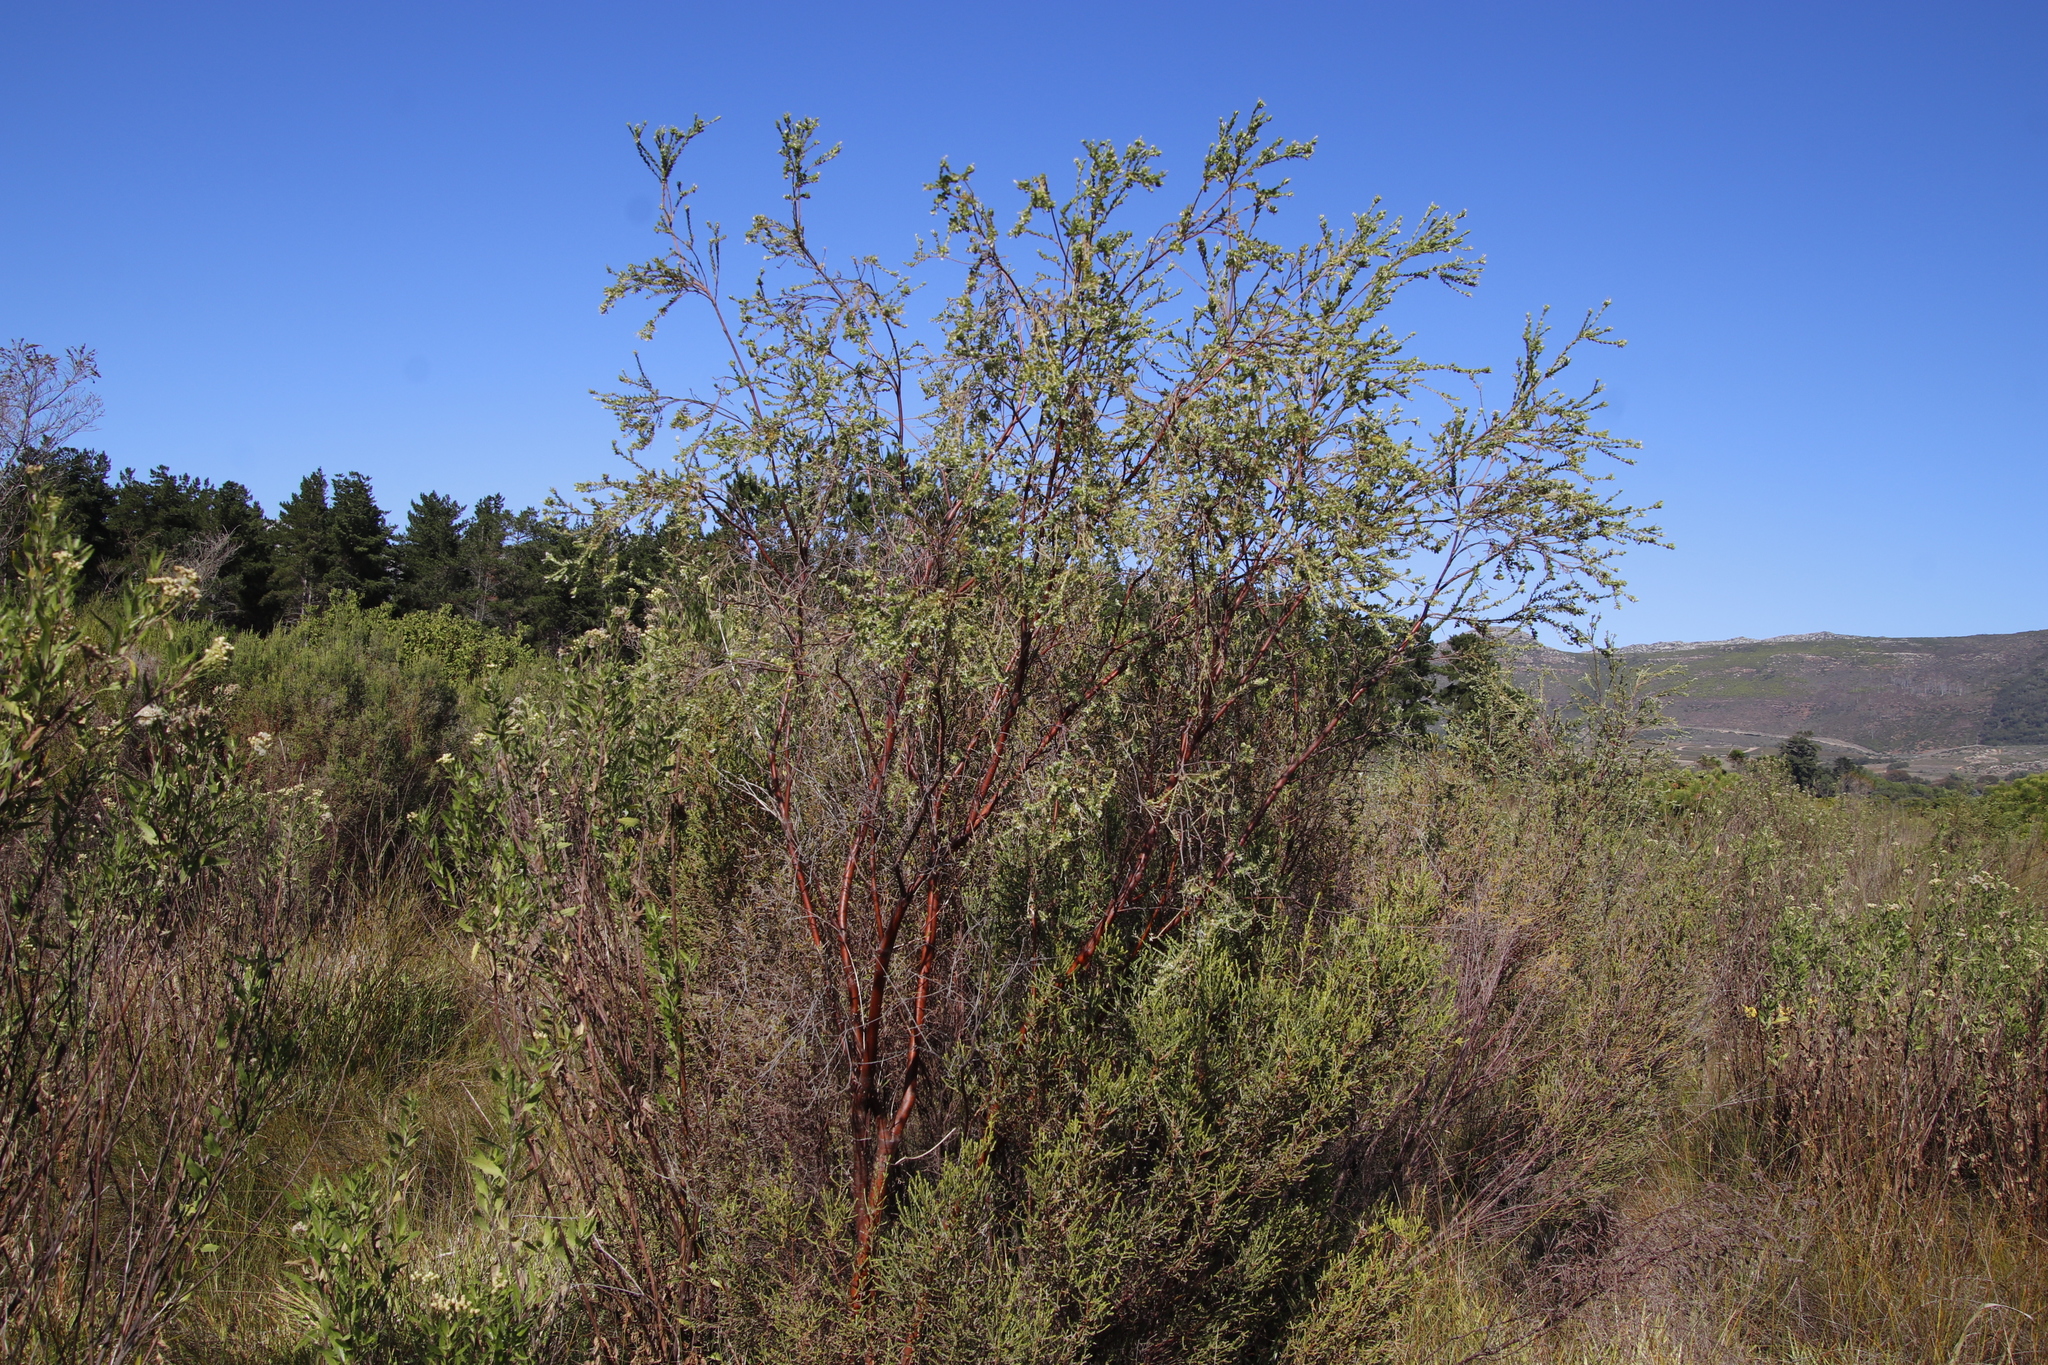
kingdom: Plantae
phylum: Tracheophyta
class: Magnoliopsida
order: Malvales
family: Thymelaeaceae
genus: Gnidia
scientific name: Gnidia sericea
